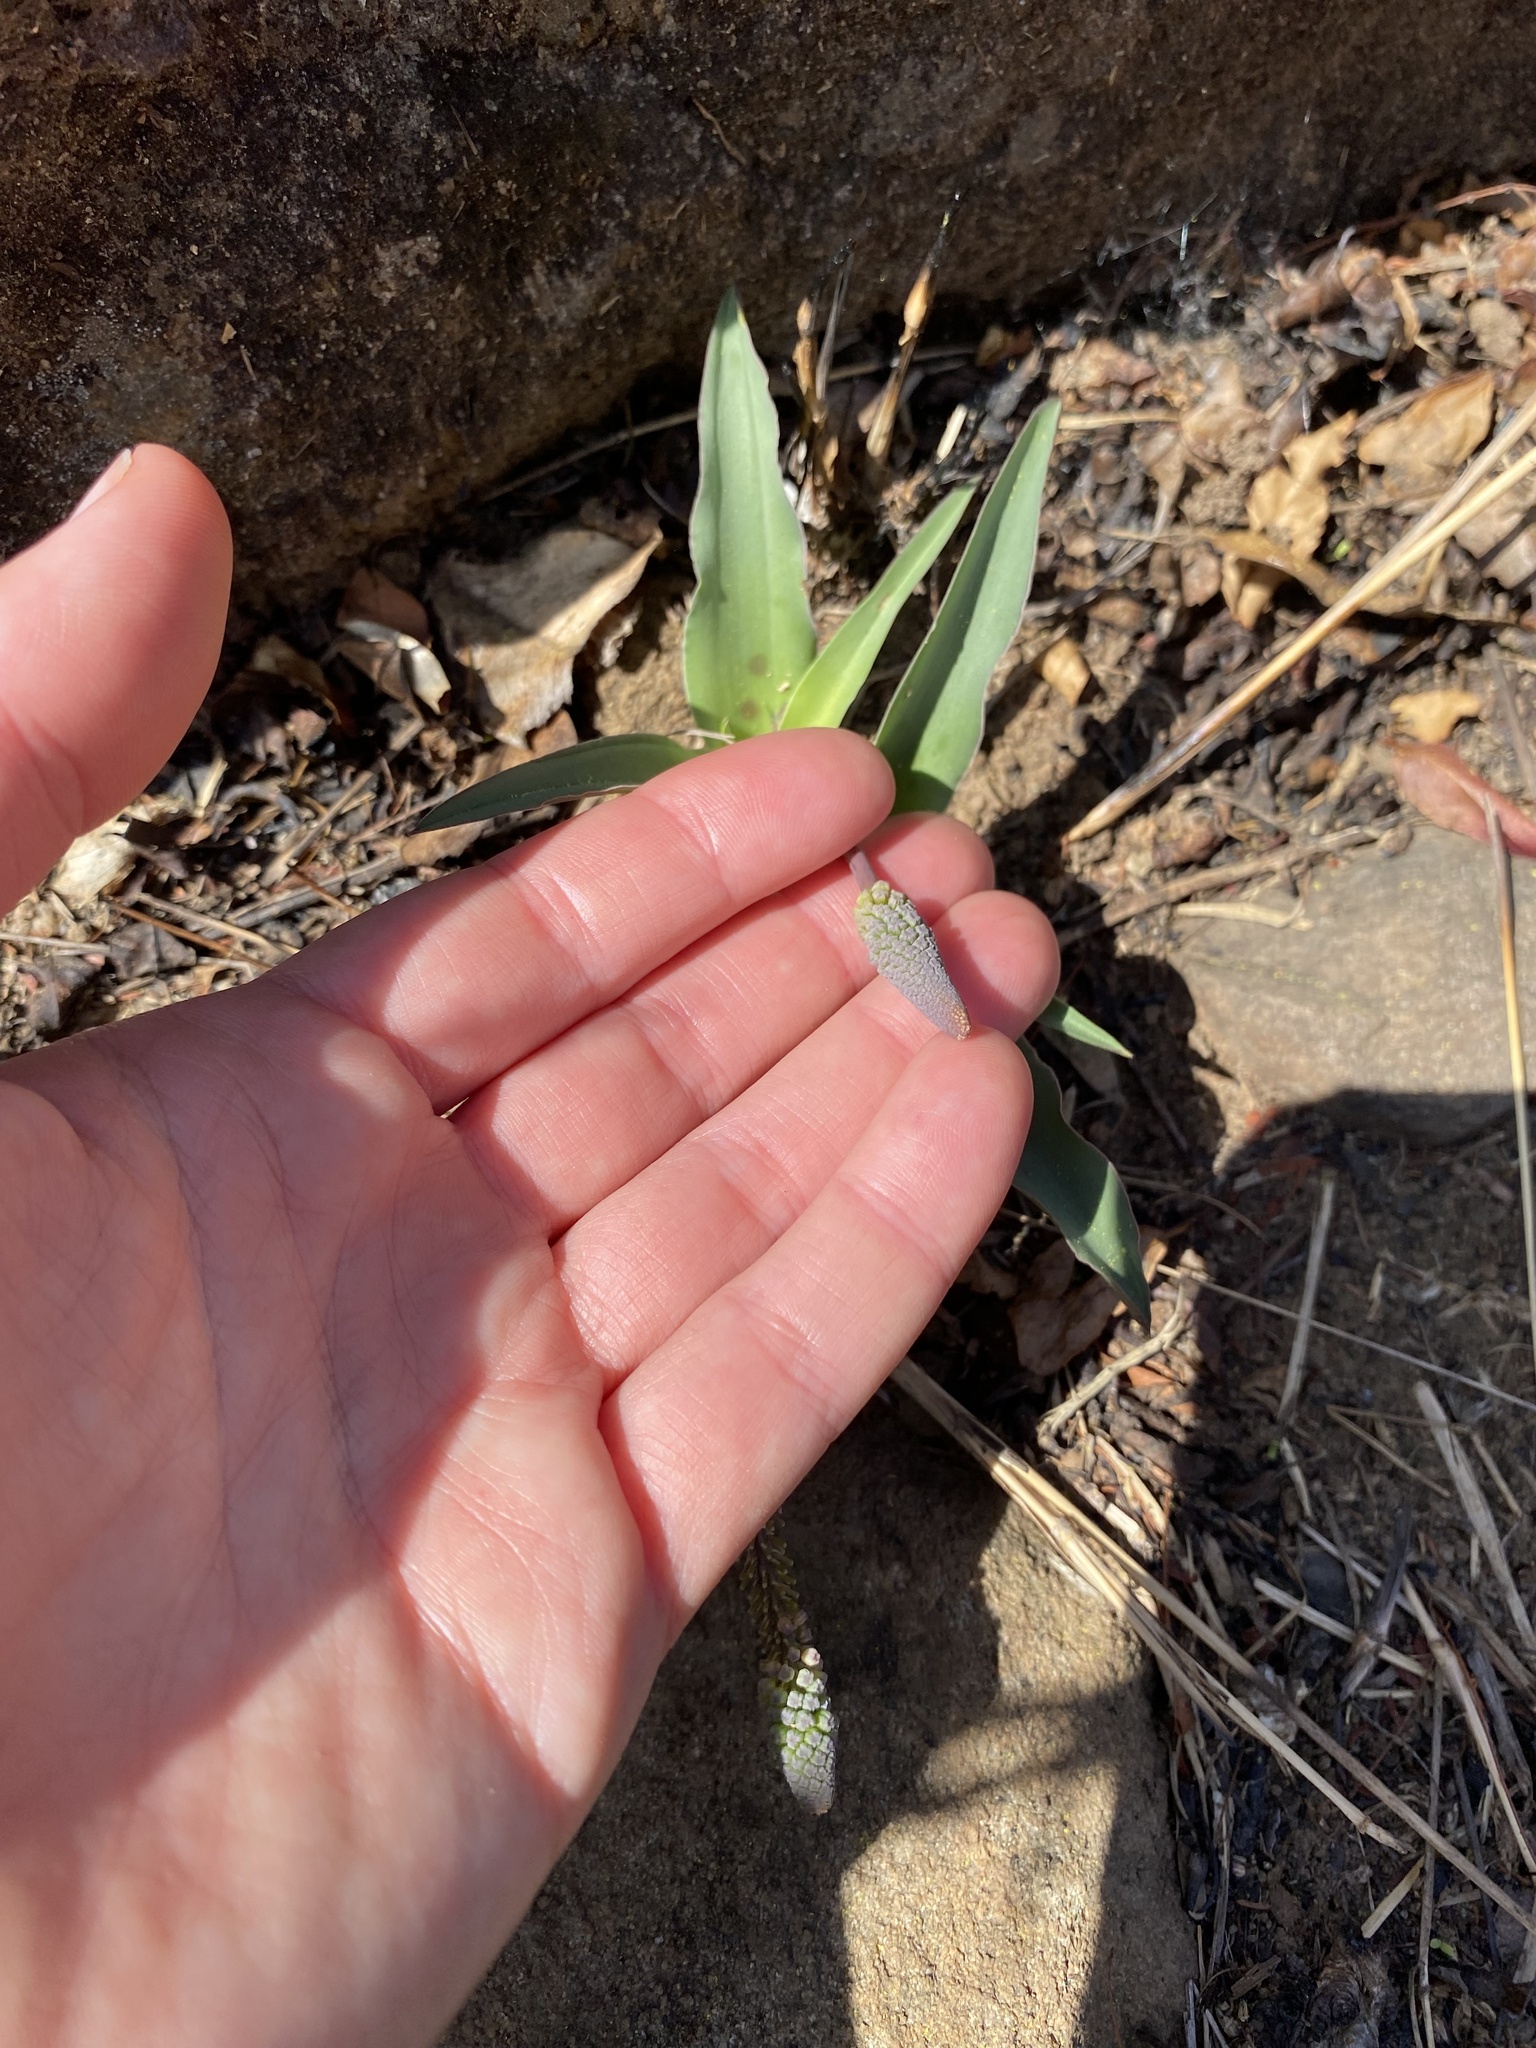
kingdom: Plantae
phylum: Tracheophyta
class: Liliopsida
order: Asparagales
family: Asparagaceae
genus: Ledebouria
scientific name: Ledebouria asperifolia
